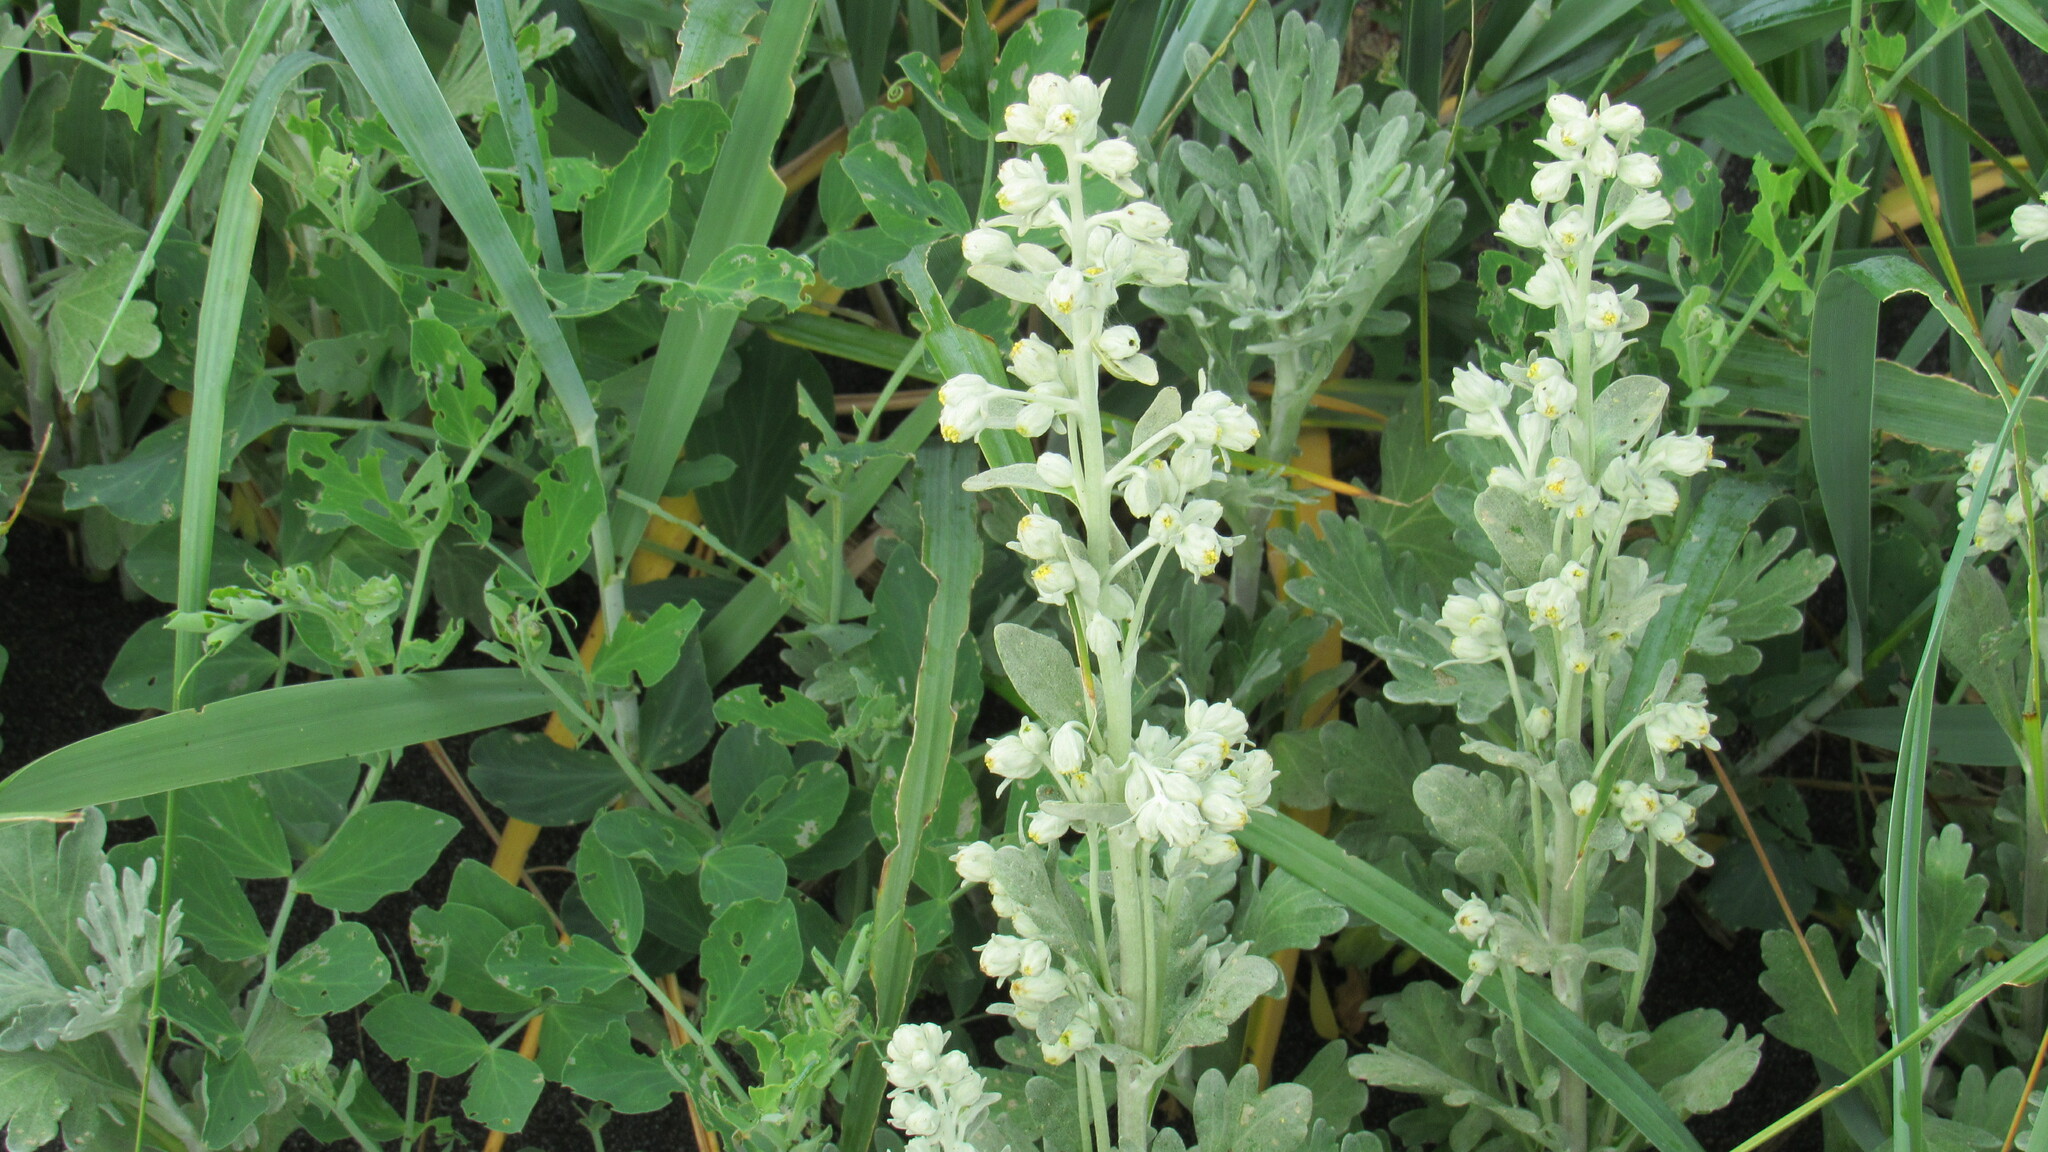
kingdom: Plantae
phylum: Tracheophyta
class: Magnoliopsida
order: Asterales
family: Asteraceae
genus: Artemisia
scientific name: Artemisia stelleriana
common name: Beach wormwood
